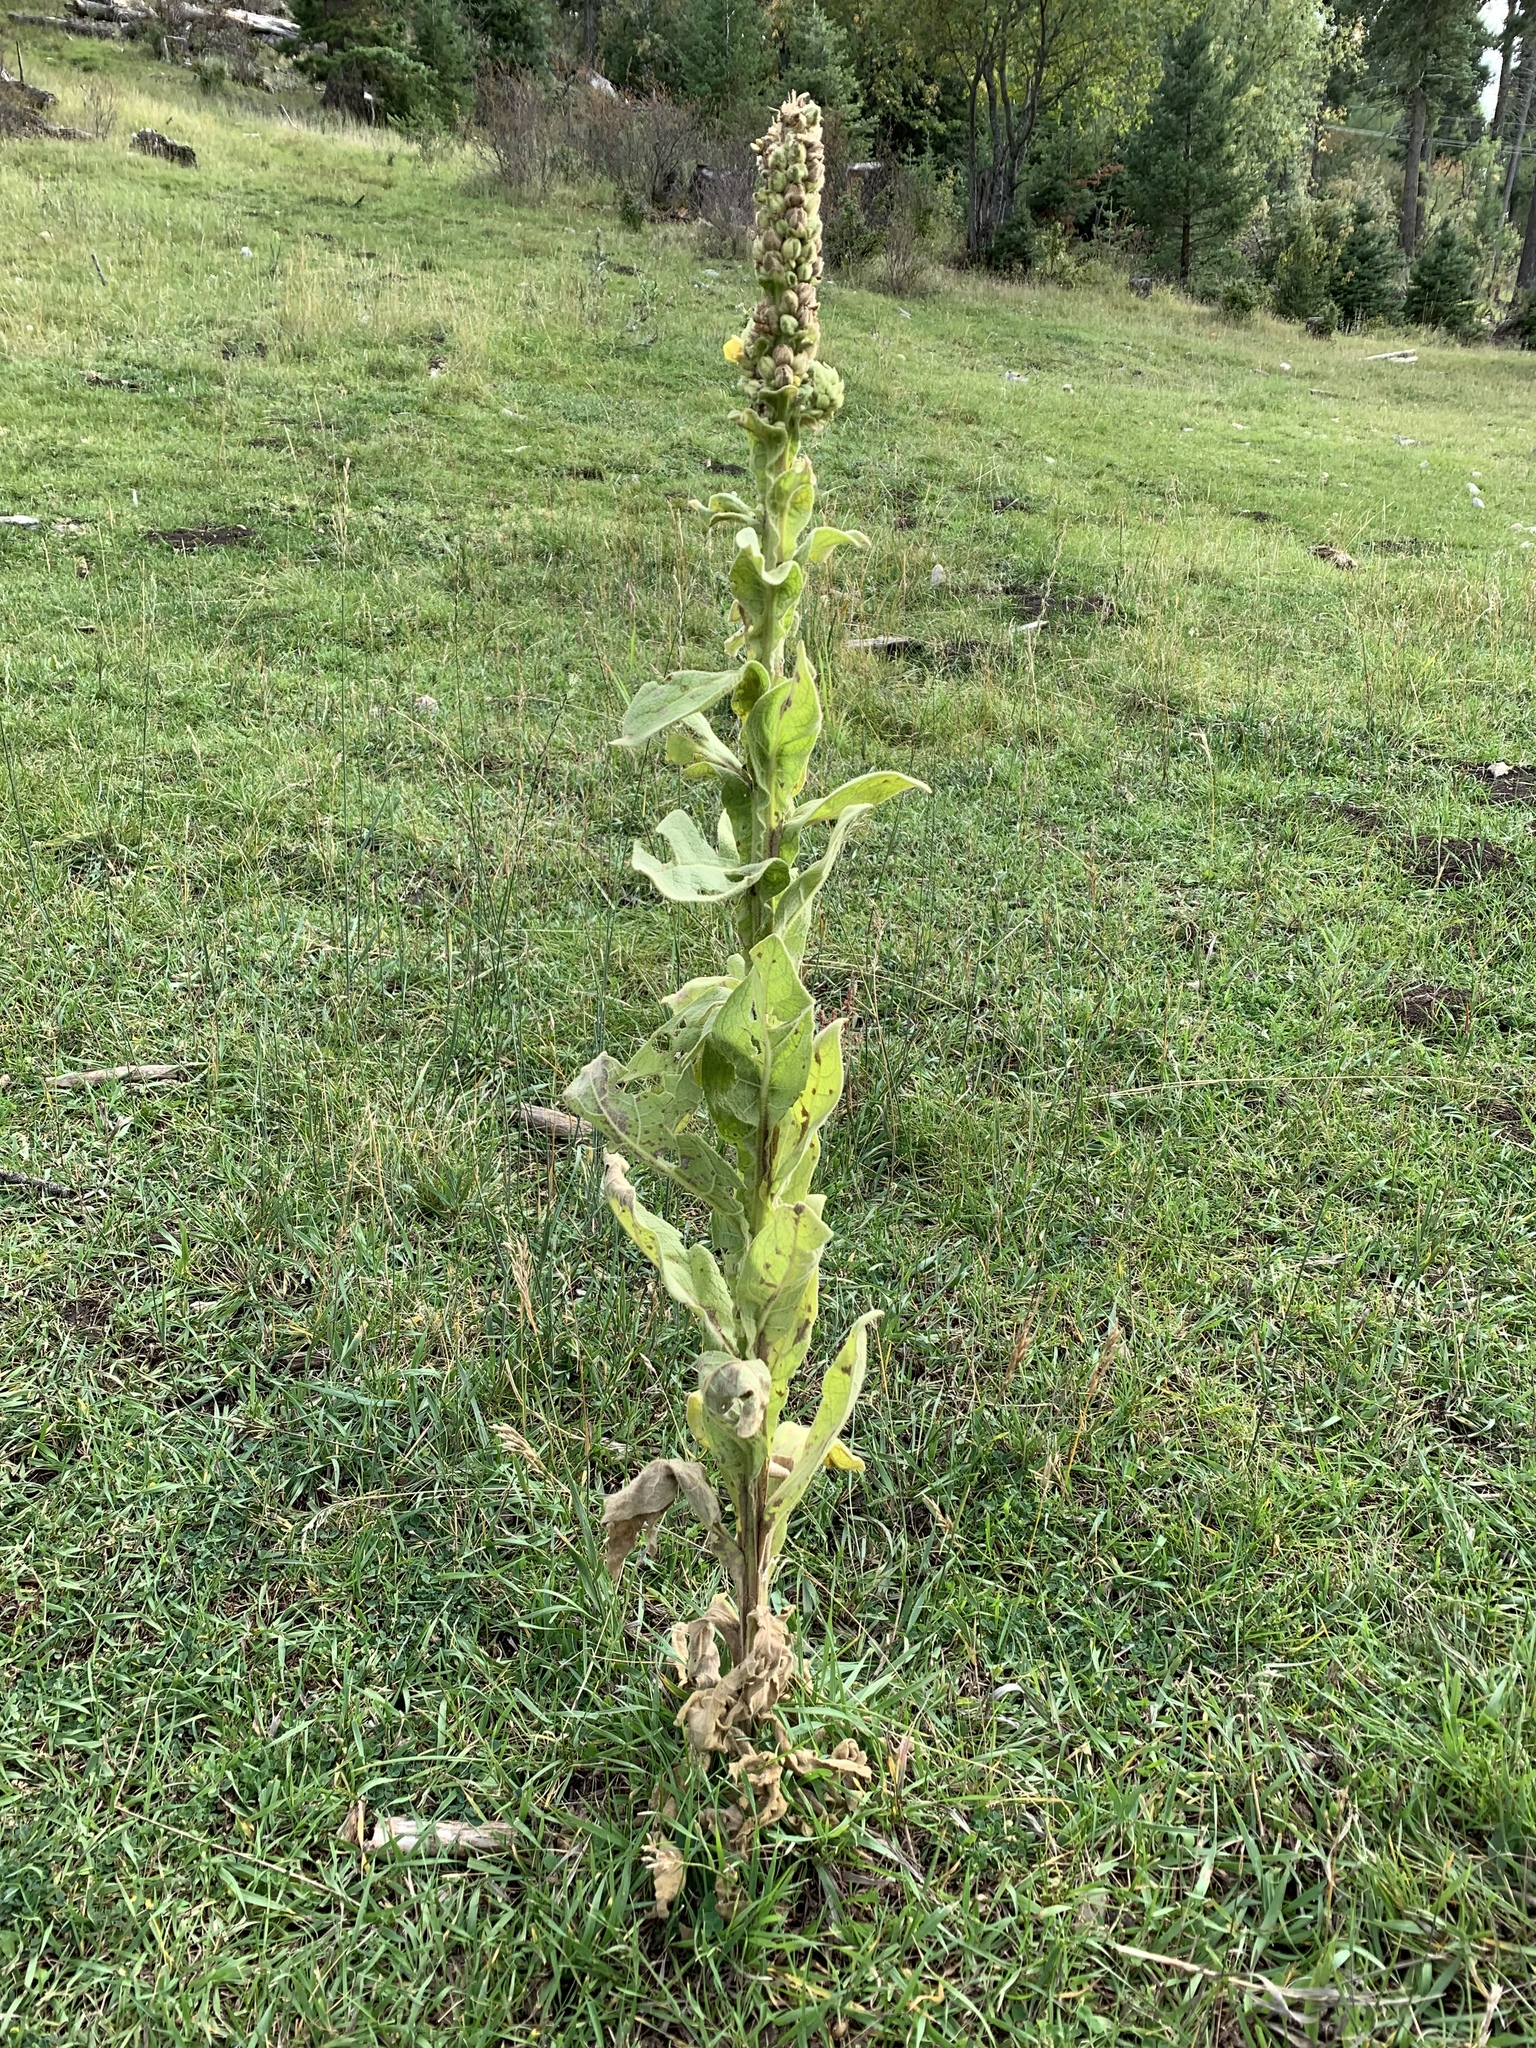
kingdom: Plantae
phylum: Tracheophyta
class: Magnoliopsida
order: Lamiales
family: Scrophulariaceae
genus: Verbascum
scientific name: Verbascum thapsus
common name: Common mullein
